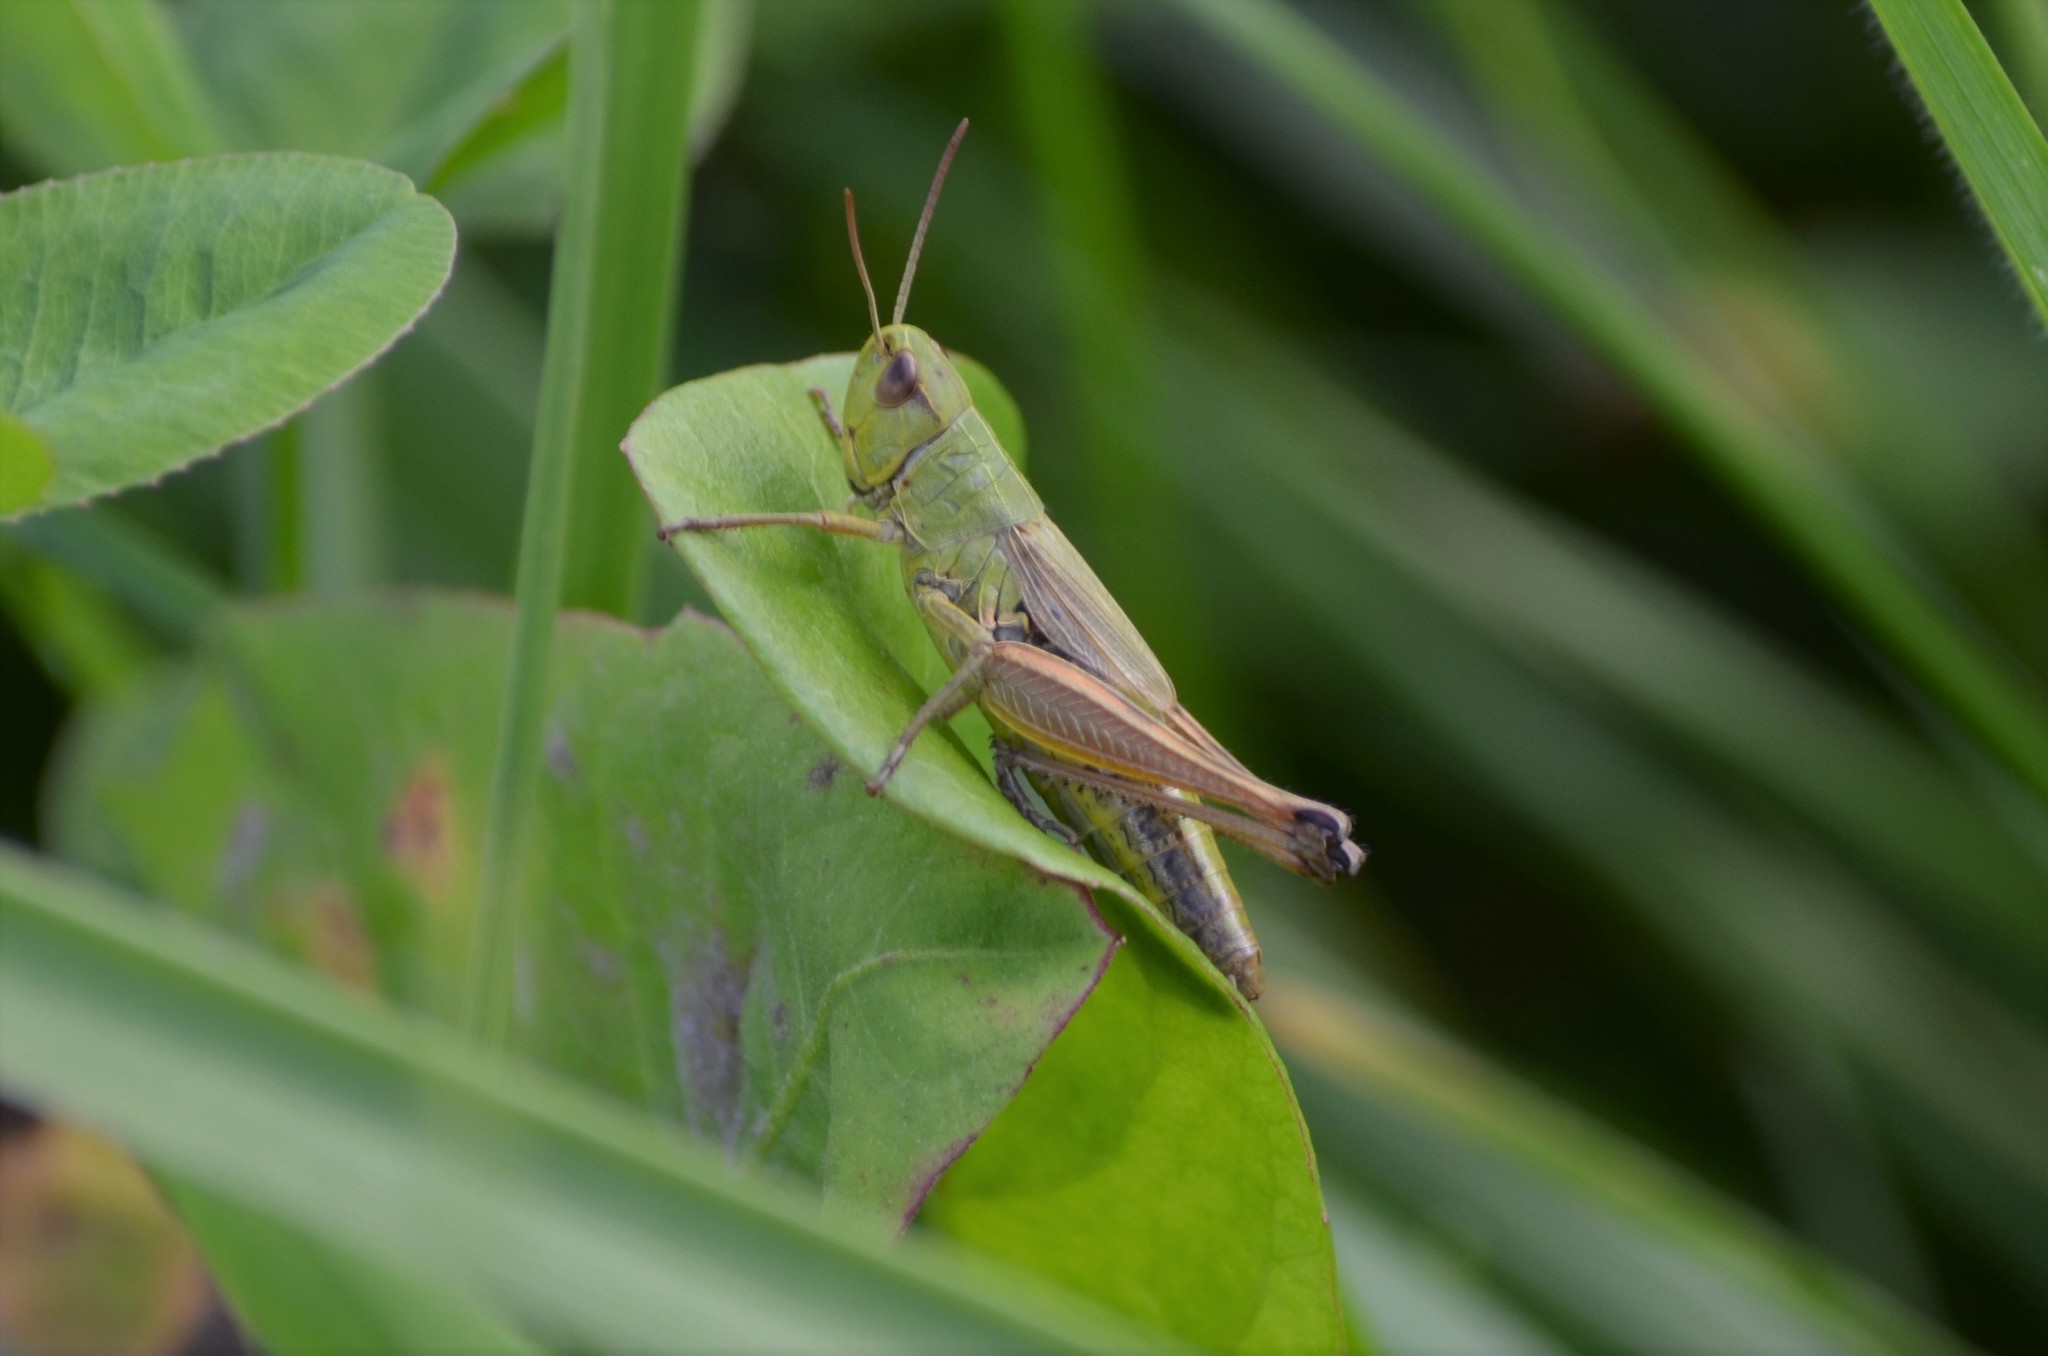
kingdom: Animalia
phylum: Arthropoda
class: Insecta
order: Orthoptera
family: Acrididae
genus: Pseudochorthippus
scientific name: Pseudochorthippus parallelus
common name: Meadow grasshopper
